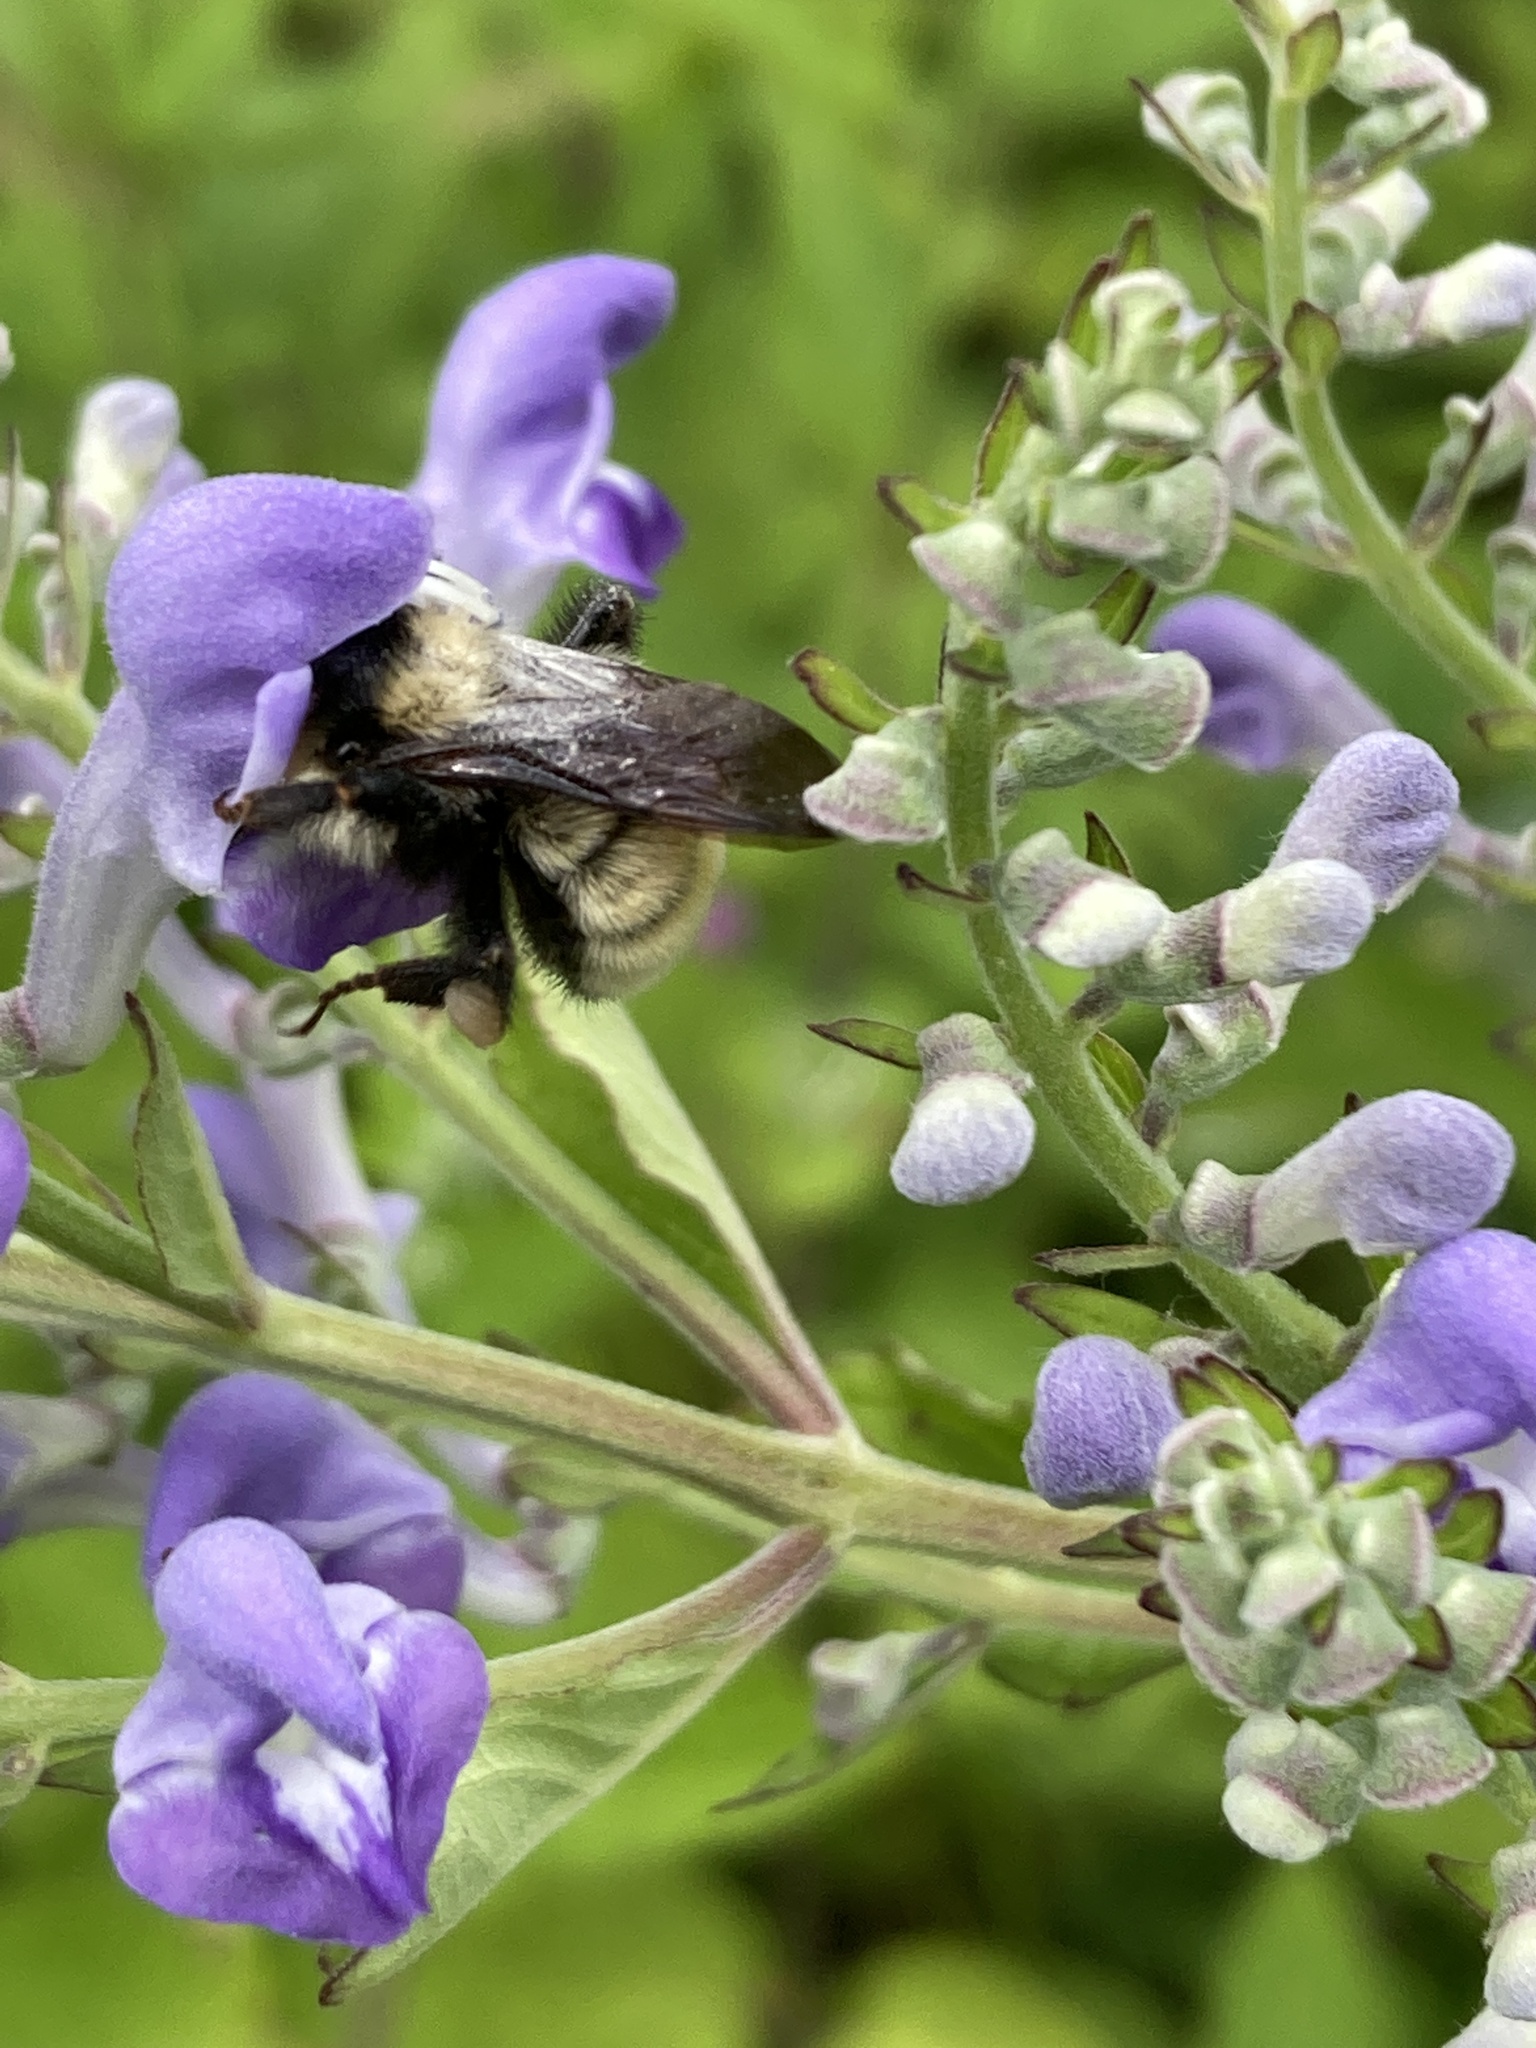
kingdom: Animalia
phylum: Arthropoda
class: Insecta
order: Hymenoptera
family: Apidae
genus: Bombus
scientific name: Bombus fervidus
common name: Yellow bumble bee
